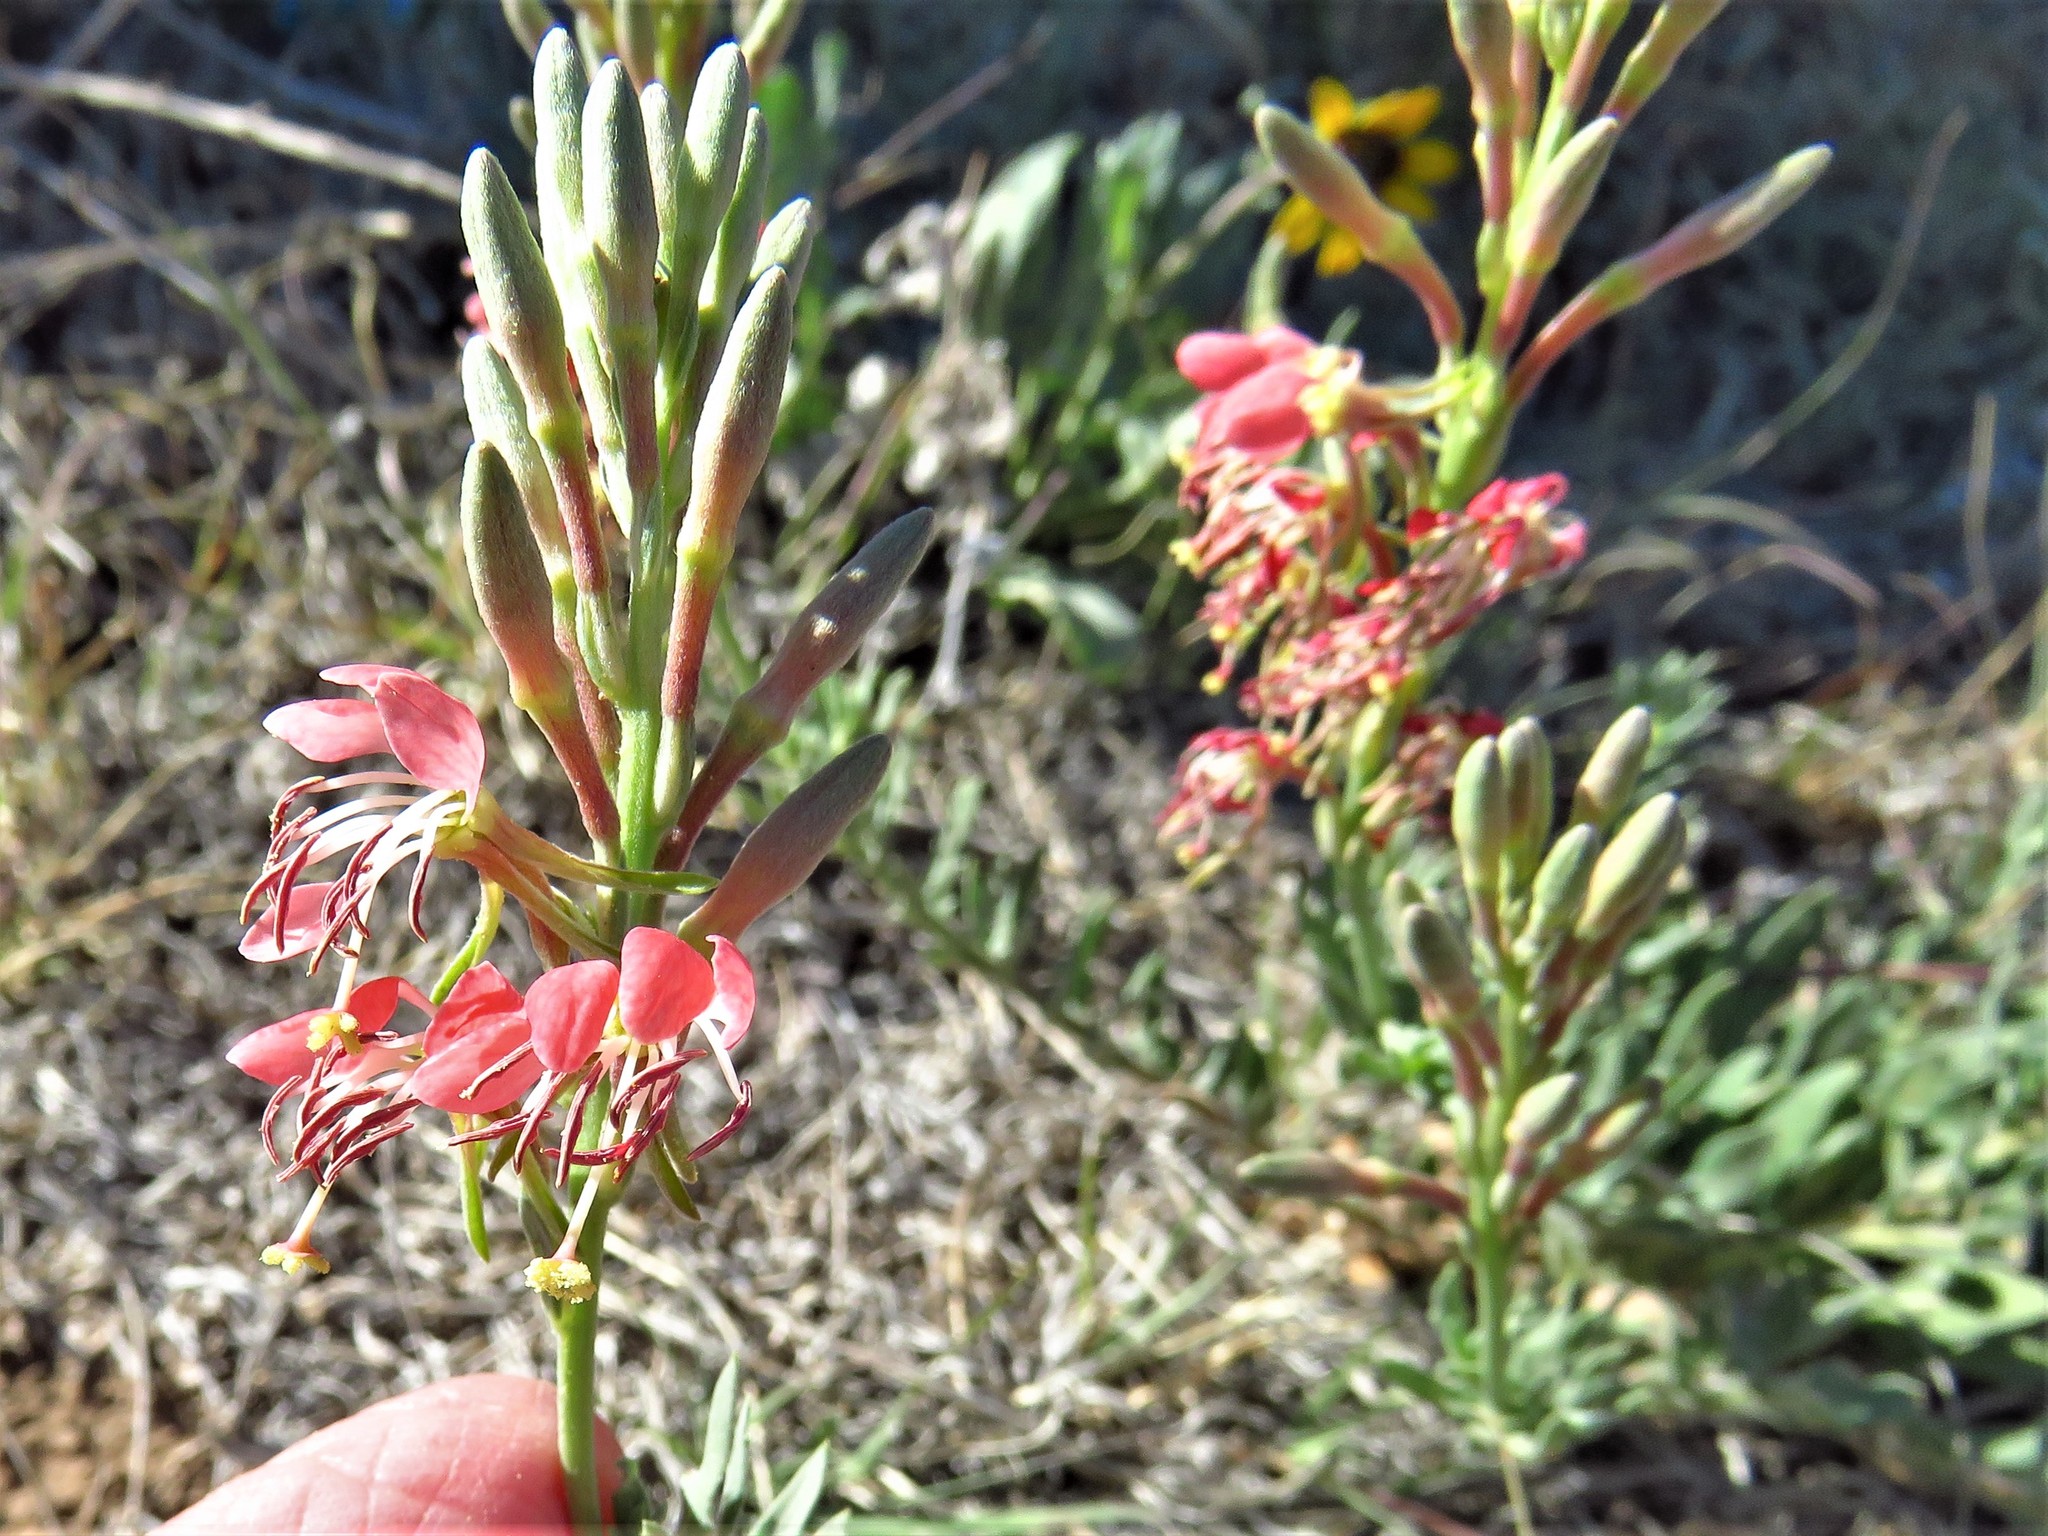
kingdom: Plantae
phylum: Tracheophyta
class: Magnoliopsida
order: Myrtales
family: Onagraceae
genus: Oenothera
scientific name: Oenothera suffrutescens
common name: Scarlet beeblossom
